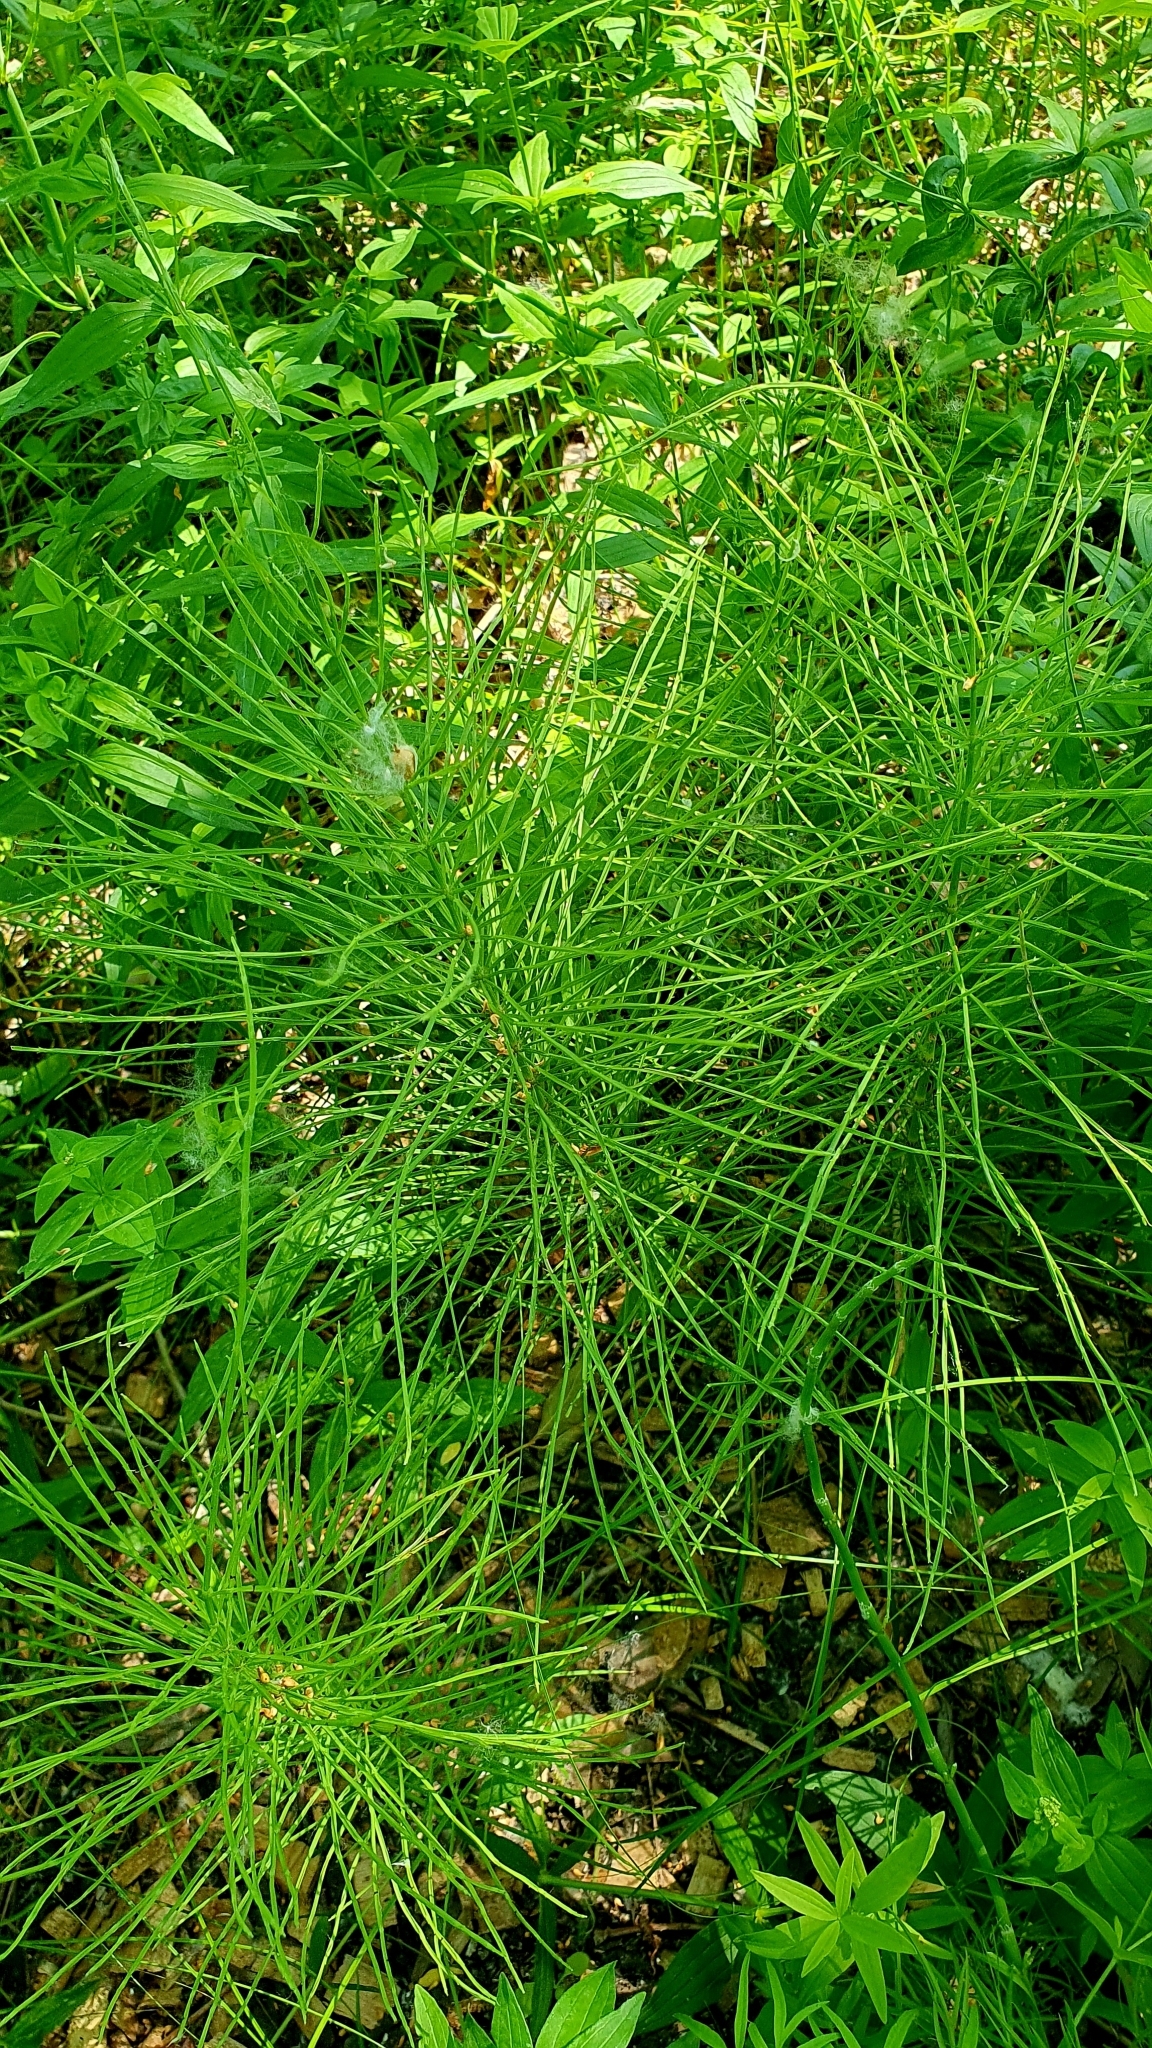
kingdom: Plantae
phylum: Tracheophyta
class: Polypodiopsida
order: Equisetales
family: Equisetaceae
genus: Equisetum
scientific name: Equisetum arvense
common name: Field horsetail
